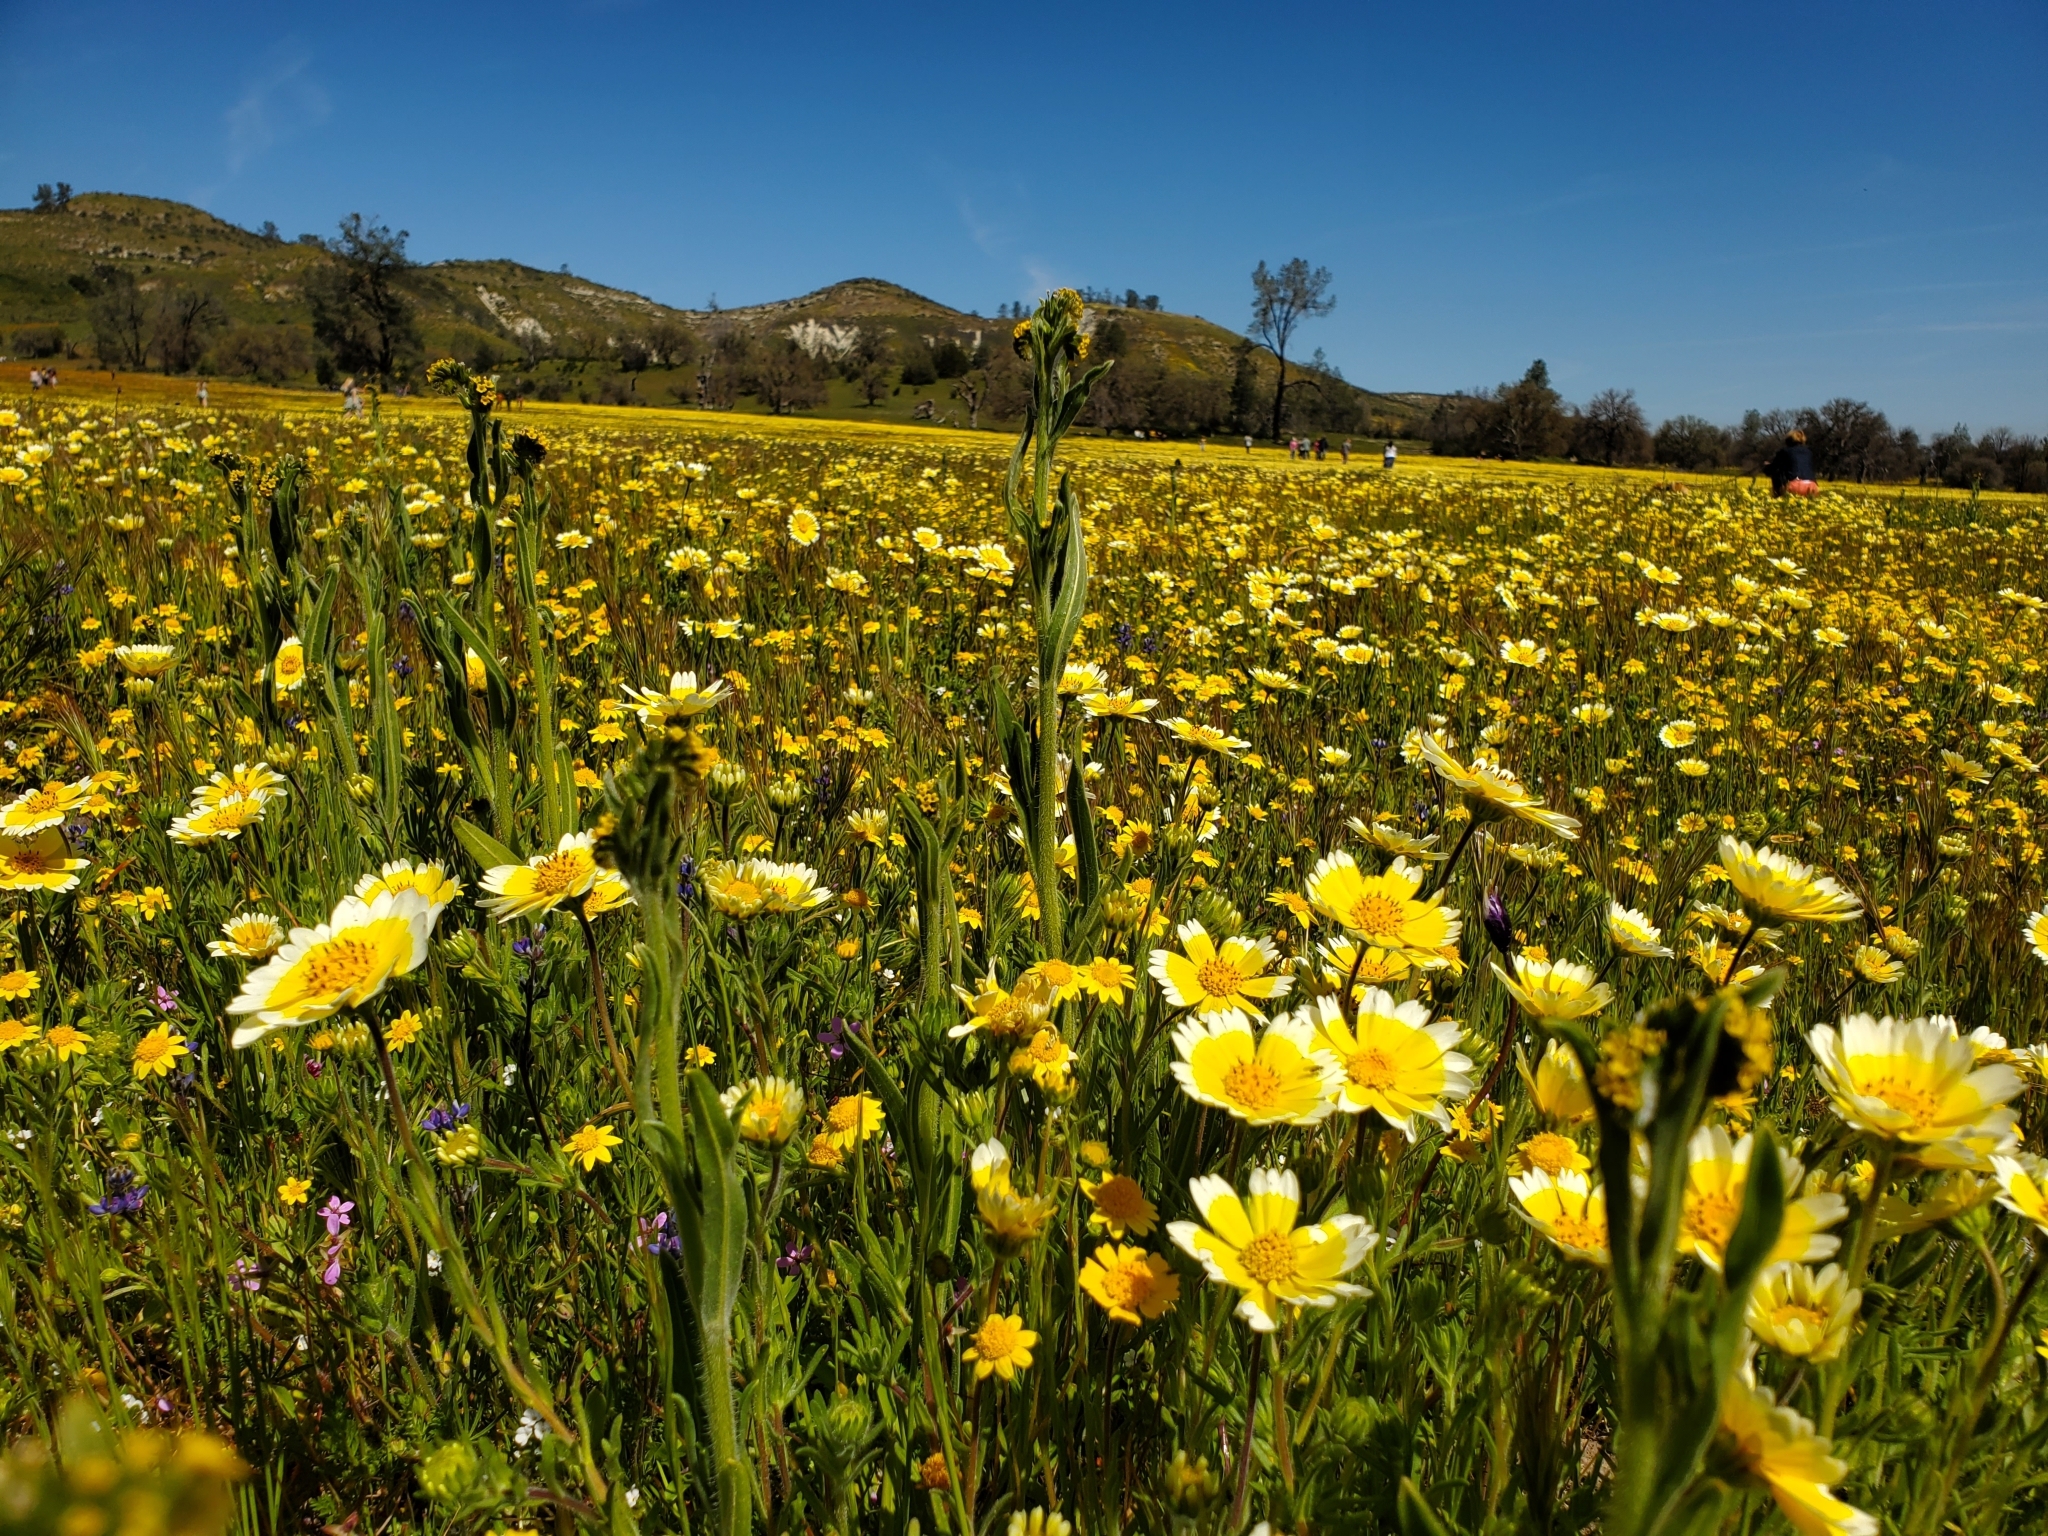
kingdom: Plantae
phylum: Tracheophyta
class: Magnoliopsida
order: Asterales
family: Asteraceae
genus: Layia
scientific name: Layia platyglossa
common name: Tidy-tips
